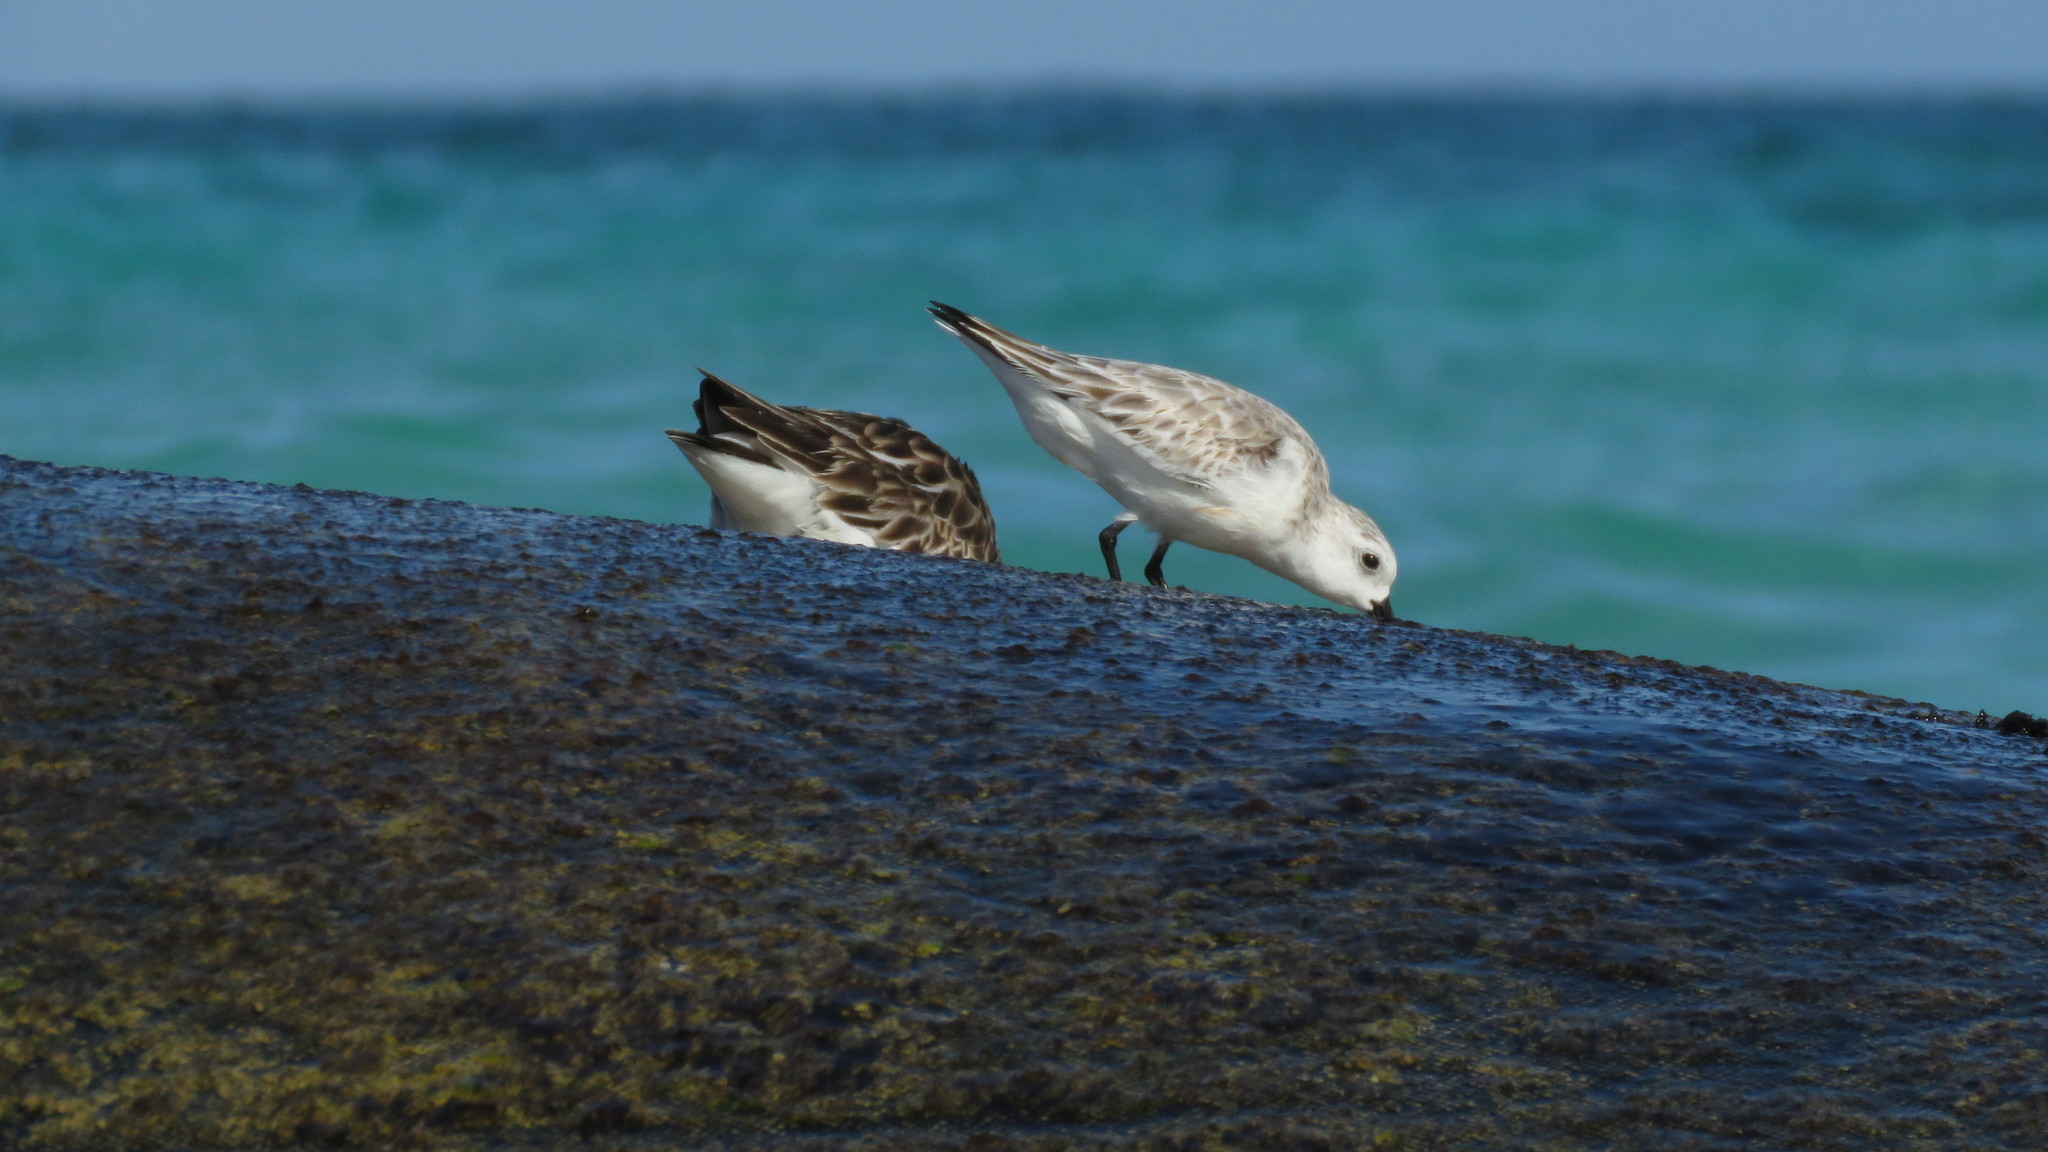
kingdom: Animalia
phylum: Chordata
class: Aves
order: Charadriiformes
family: Scolopacidae
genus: Calidris
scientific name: Calidris alba
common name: Sanderling
